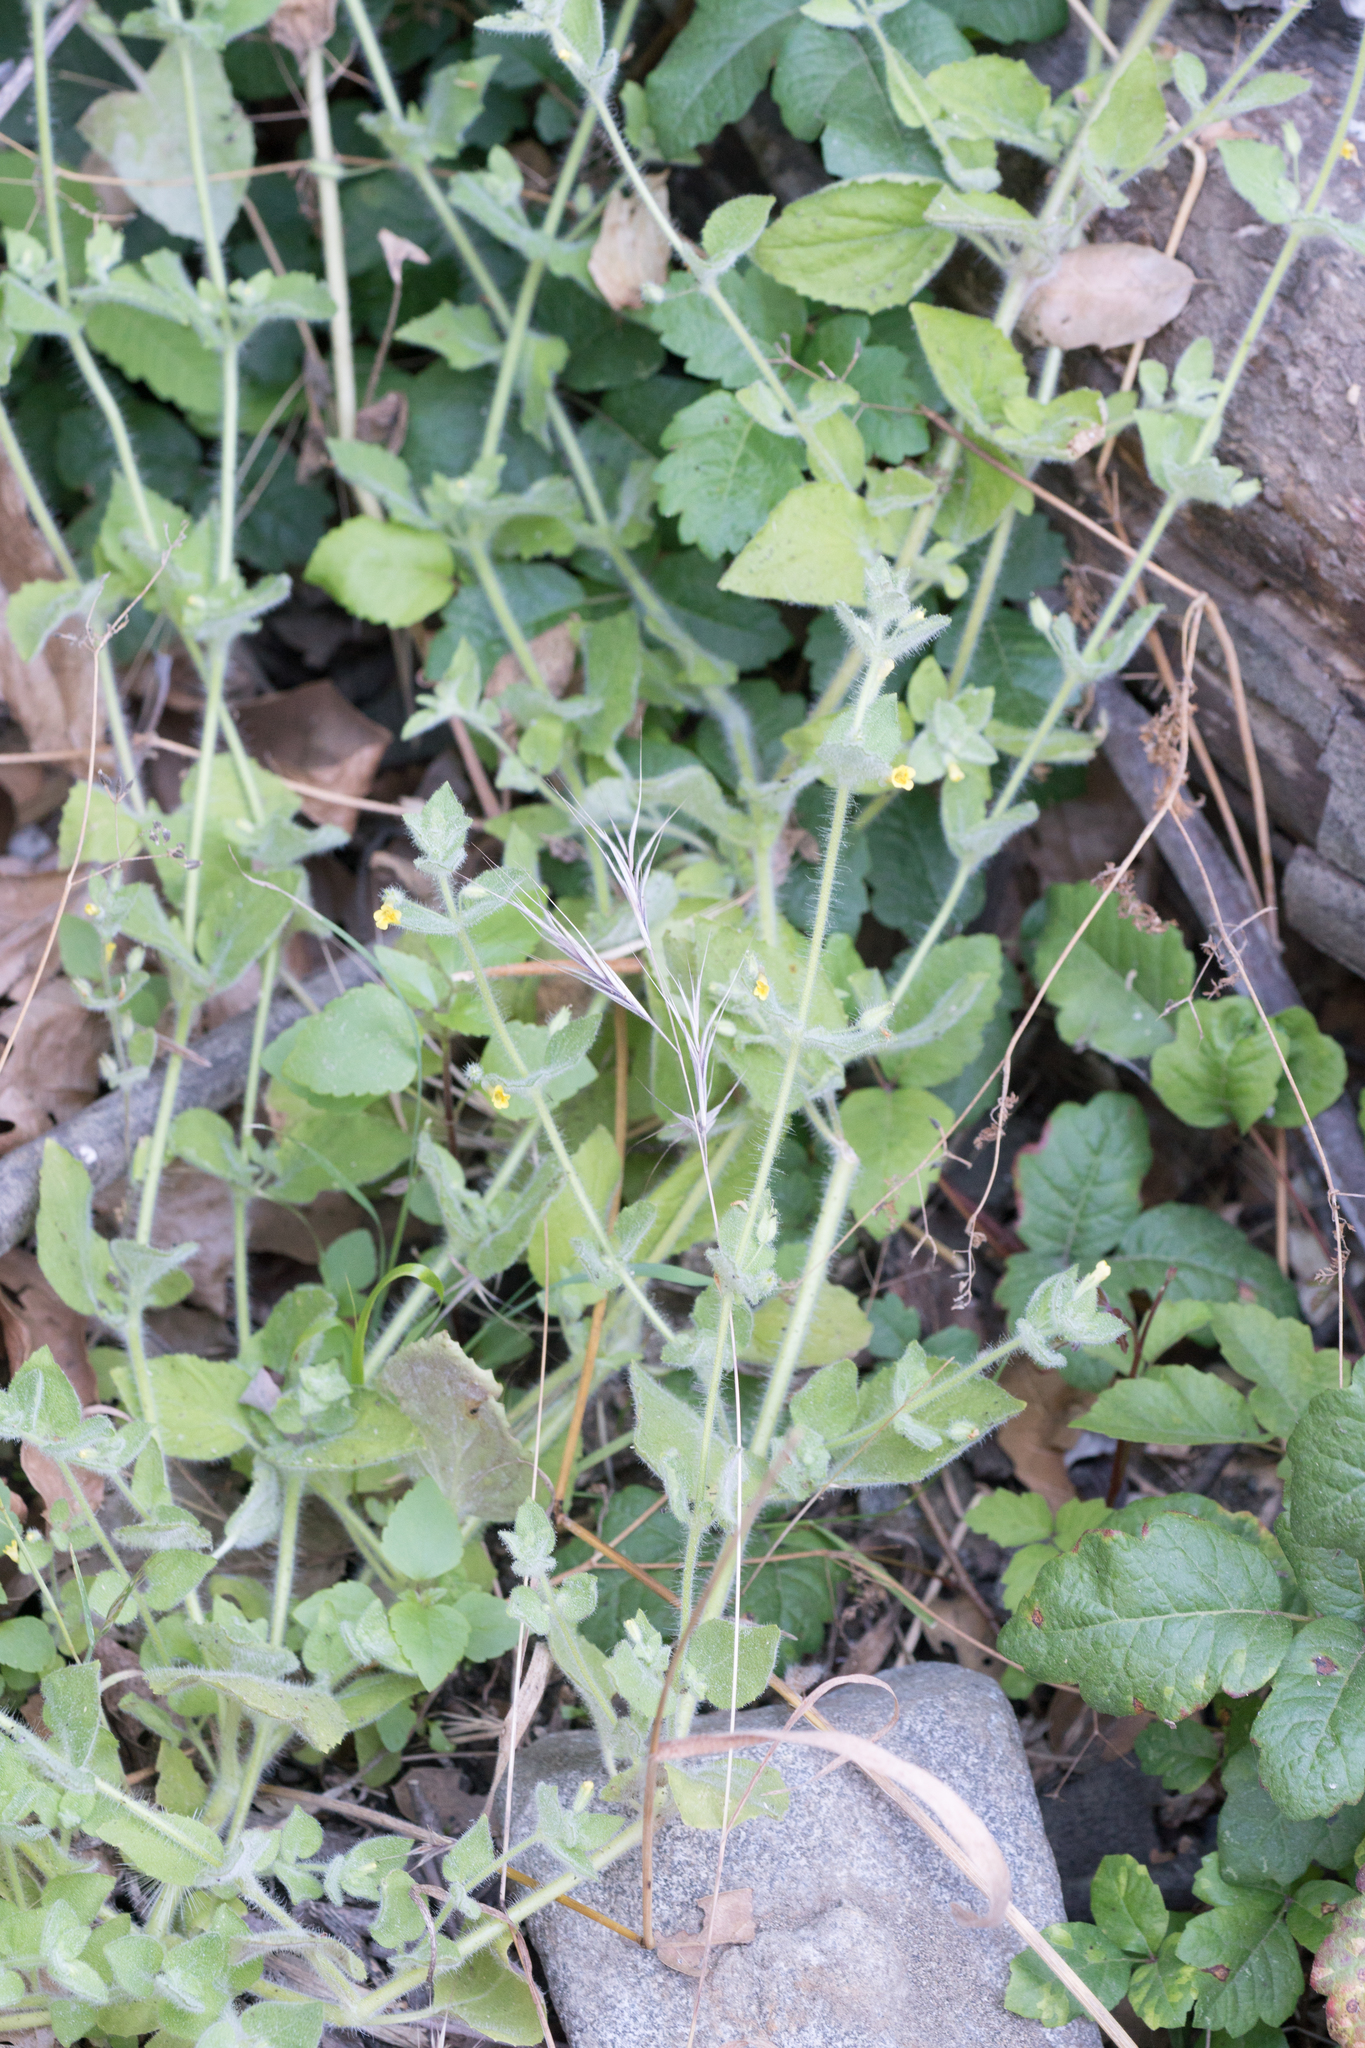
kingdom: Plantae
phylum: Tracheophyta
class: Magnoliopsida
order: Lamiales
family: Phrymaceae
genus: Erythranthe
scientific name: Erythranthe floribunda
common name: Floriferous monkeyflower
